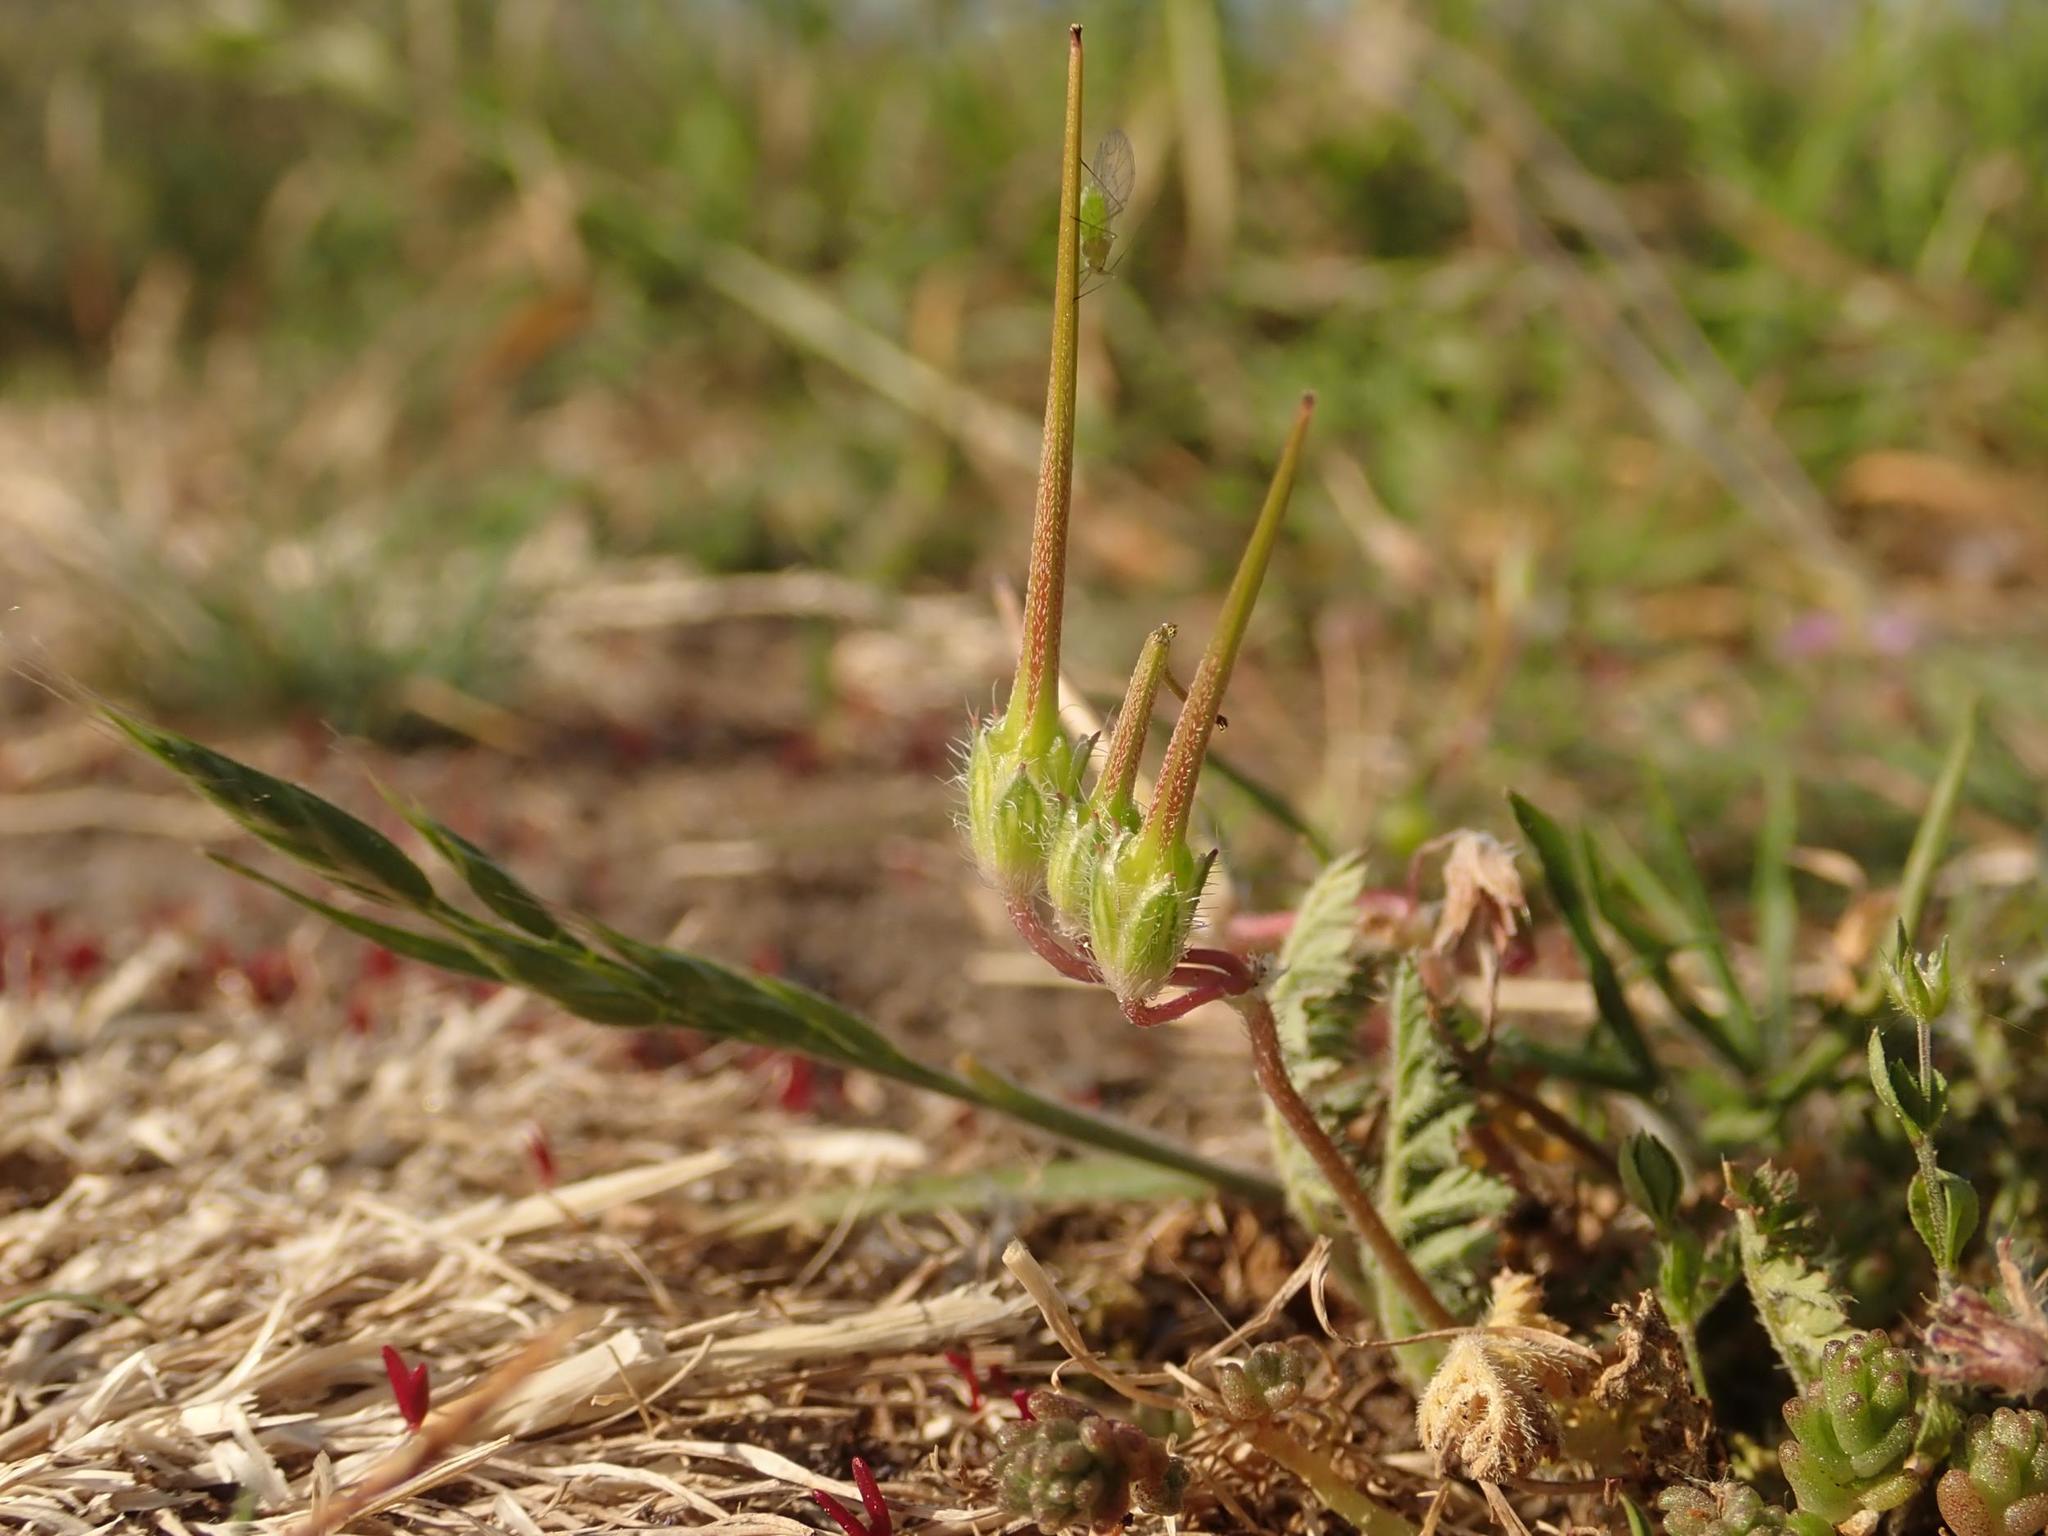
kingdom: Plantae
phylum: Tracheophyta
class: Magnoliopsida
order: Geraniales
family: Geraniaceae
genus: Erodium
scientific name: Erodium cicutarium
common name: Common stork's-bill
